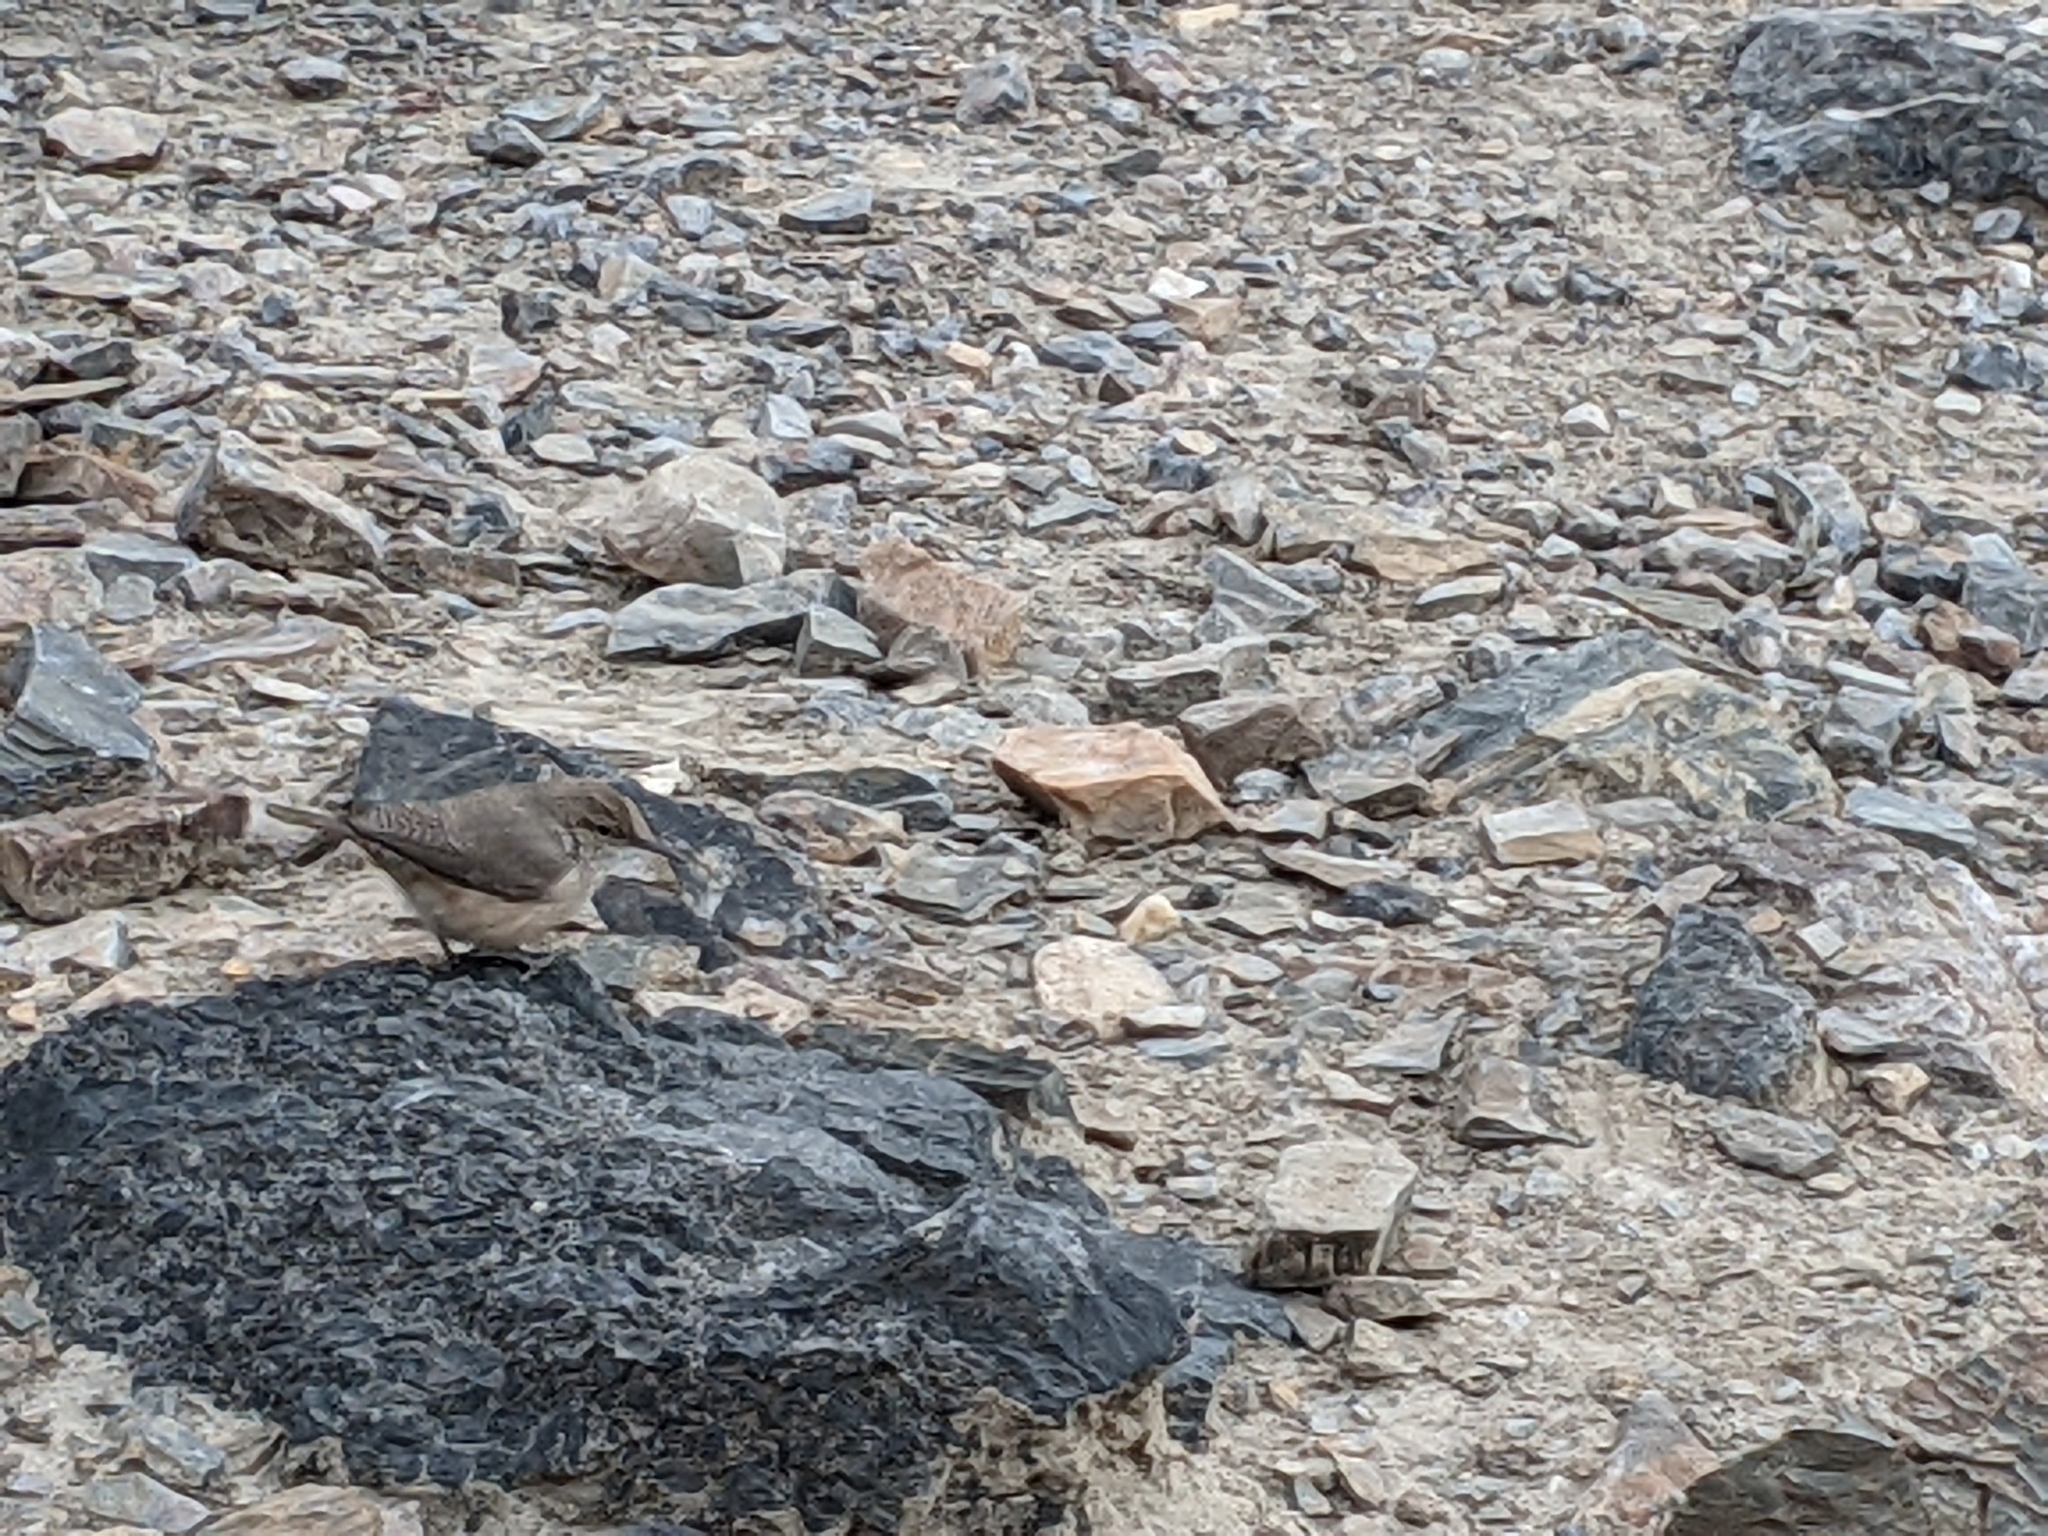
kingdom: Animalia
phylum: Chordata
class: Aves
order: Passeriformes
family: Troglodytidae
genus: Salpinctes
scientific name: Salpinctes obsoletus
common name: Rock wren
